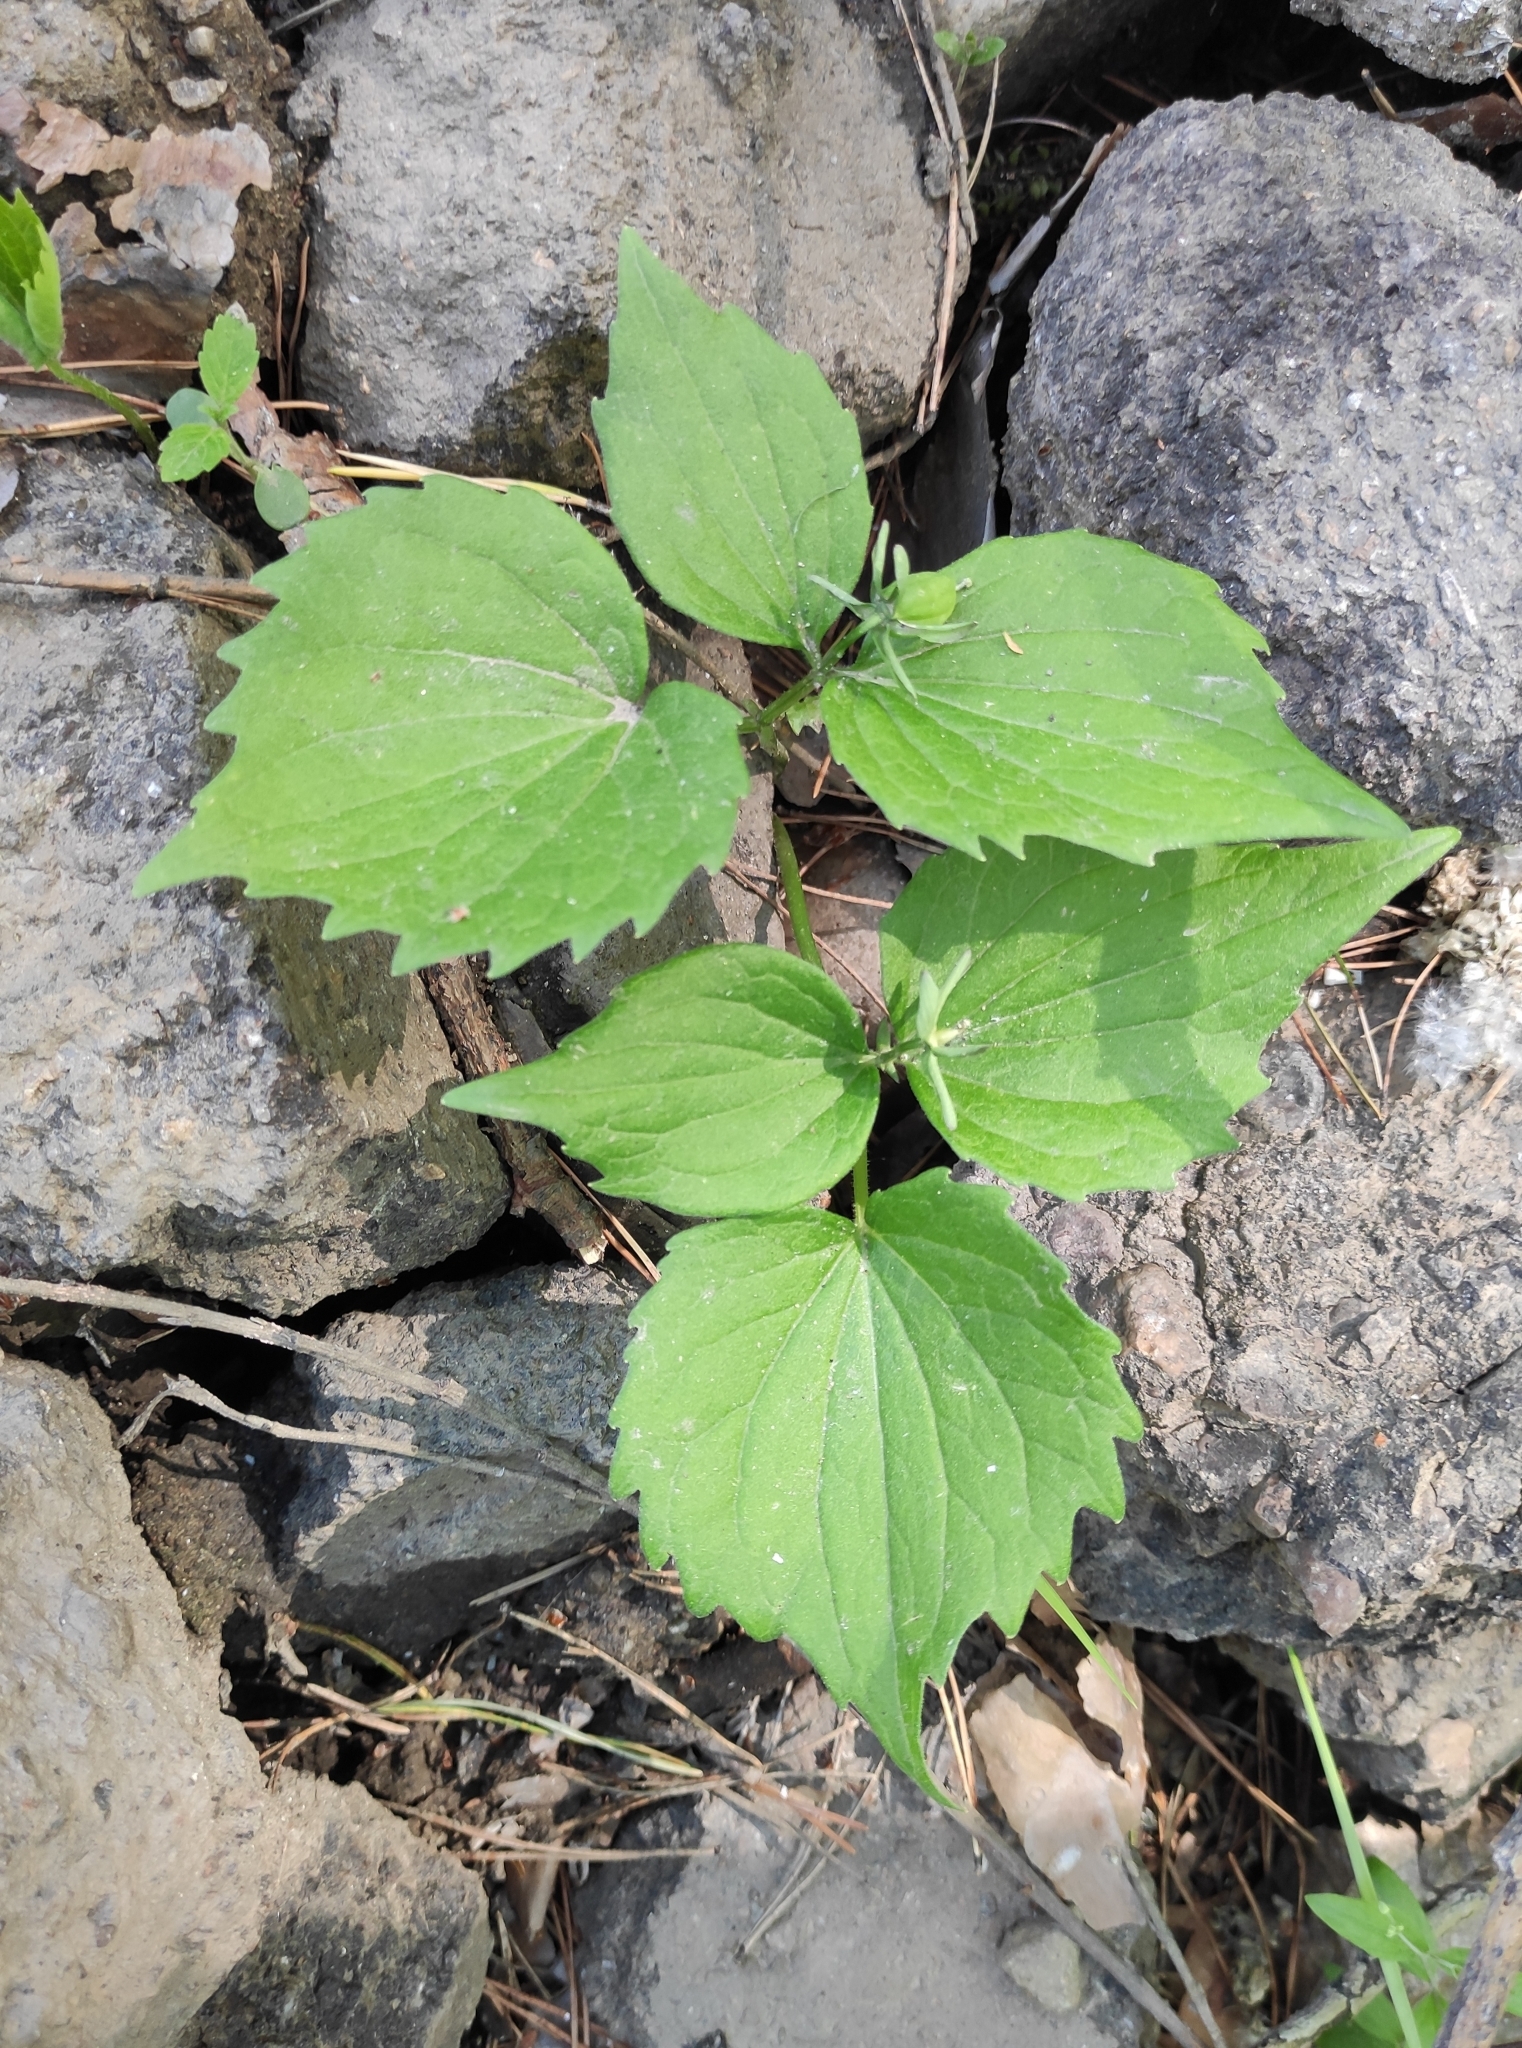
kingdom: Plantae
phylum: Tracheophyta
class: Magnoliopsida
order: Malpighiales
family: Violaceae
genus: Viola
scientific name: Viola uniflora
